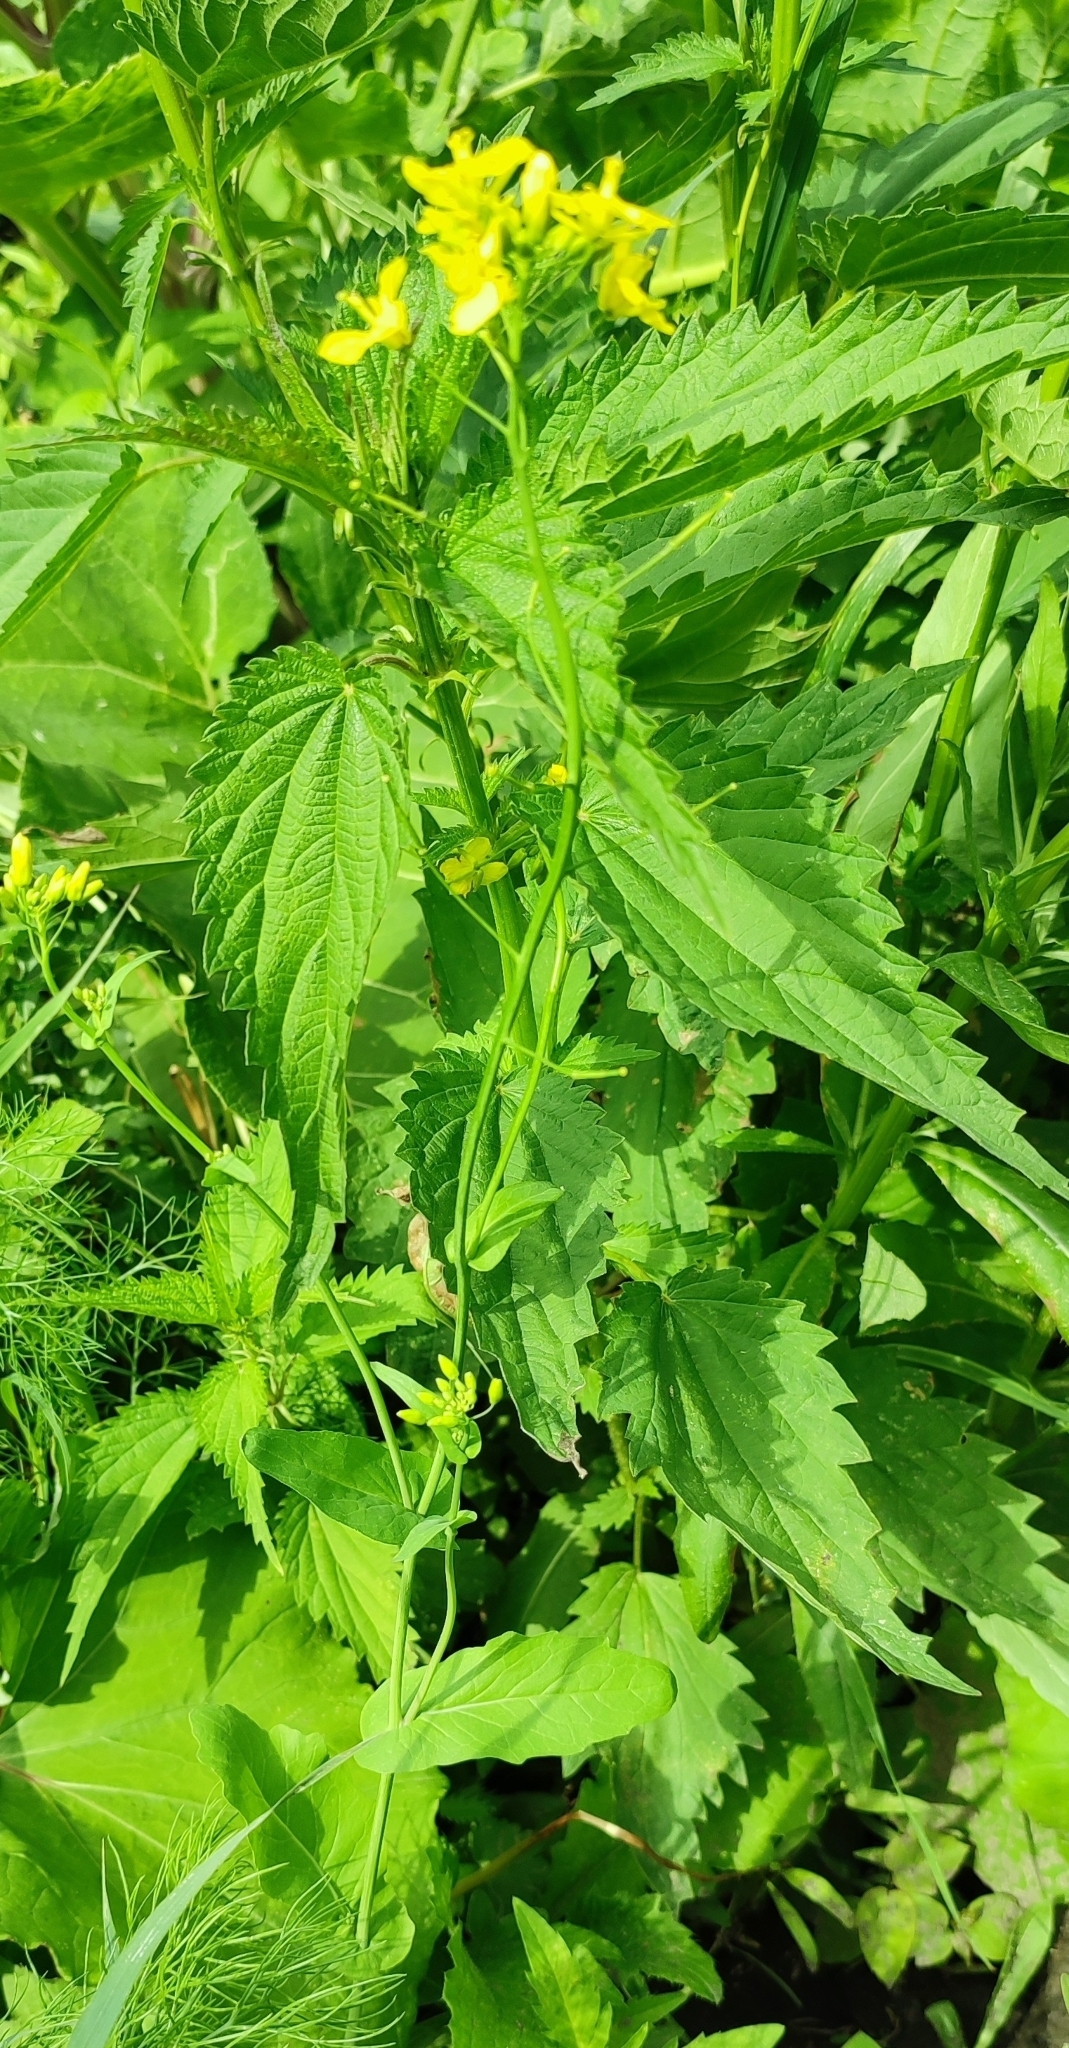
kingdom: Plantae
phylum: Tracheophyta
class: Magnoliopsida
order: Brassicales
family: Brassicaceae
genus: Brassica
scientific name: Brassica rapa
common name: Field mustard
